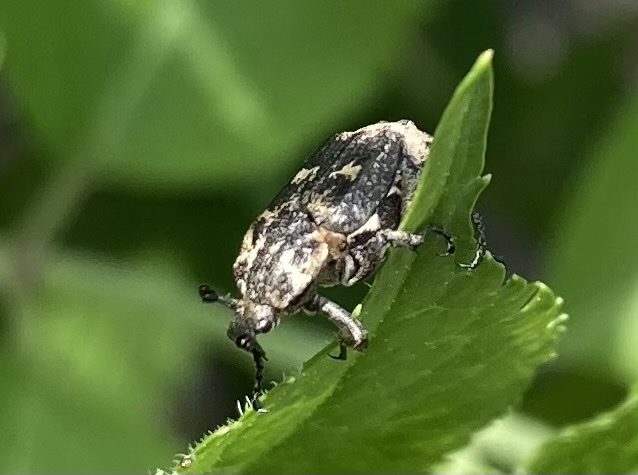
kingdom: Animalia
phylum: Arthropoda
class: Insecta
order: Coleoptera
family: Scarabaeidae
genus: Valgus
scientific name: Valgus hemipterus
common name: Bug flower chafer
